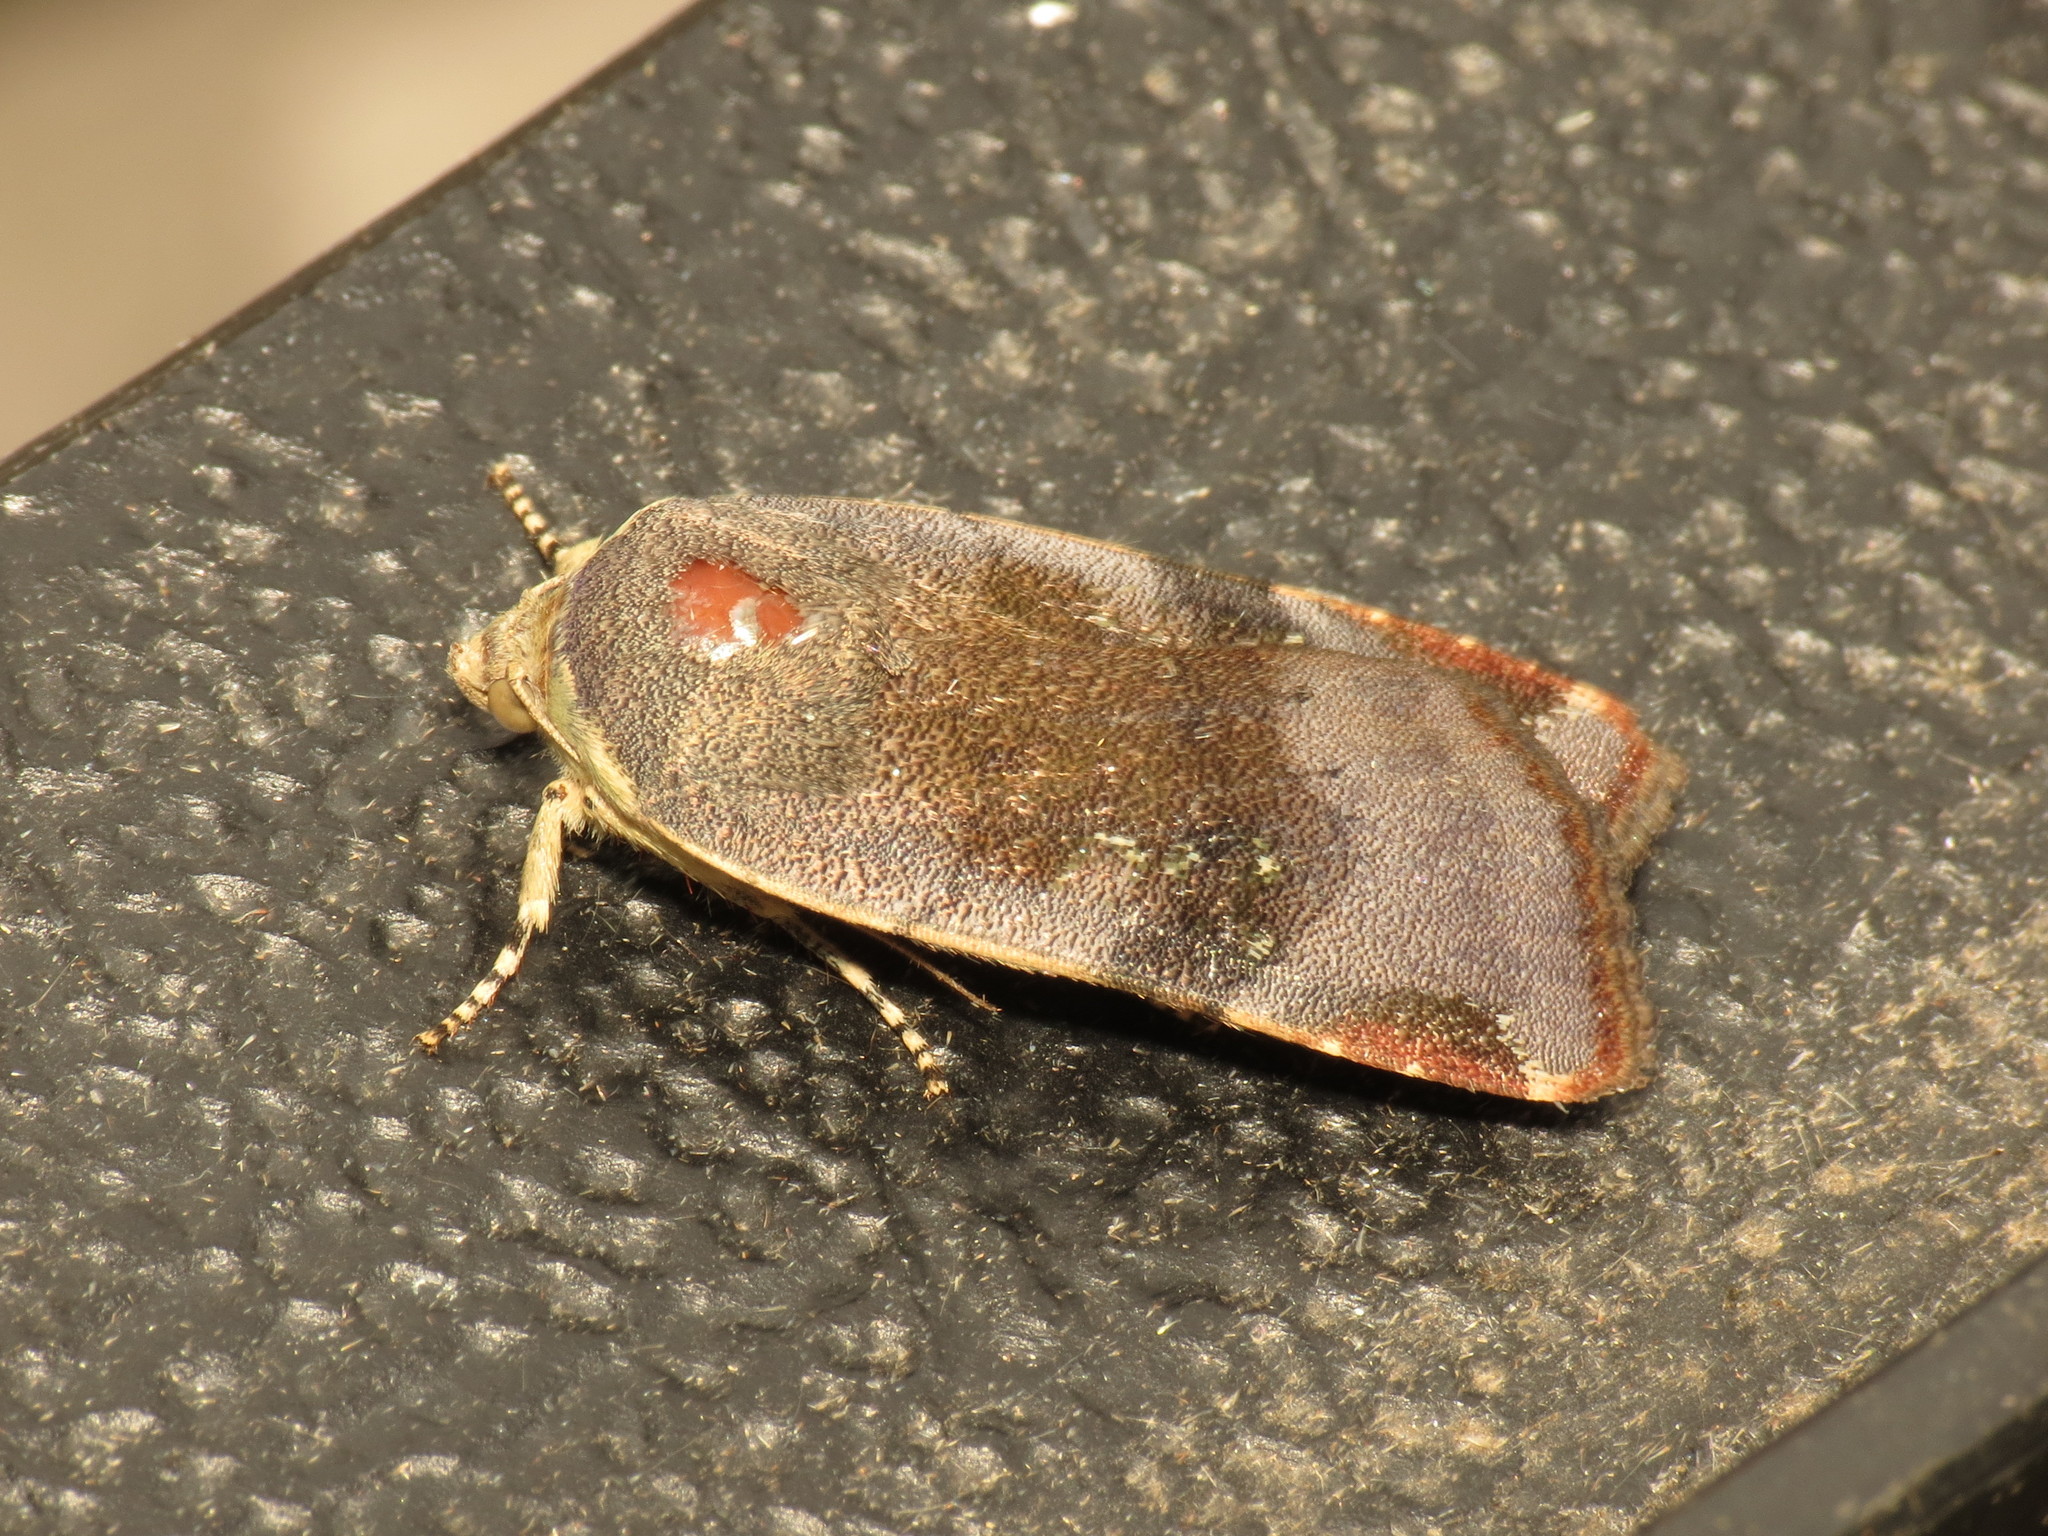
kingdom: Animalia
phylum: Arthropoda
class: Insecta
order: Lepidoptera
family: Noctuidae
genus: Noctua
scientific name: Noctua janthe
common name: Lesser broad-bordered yellow underwing
